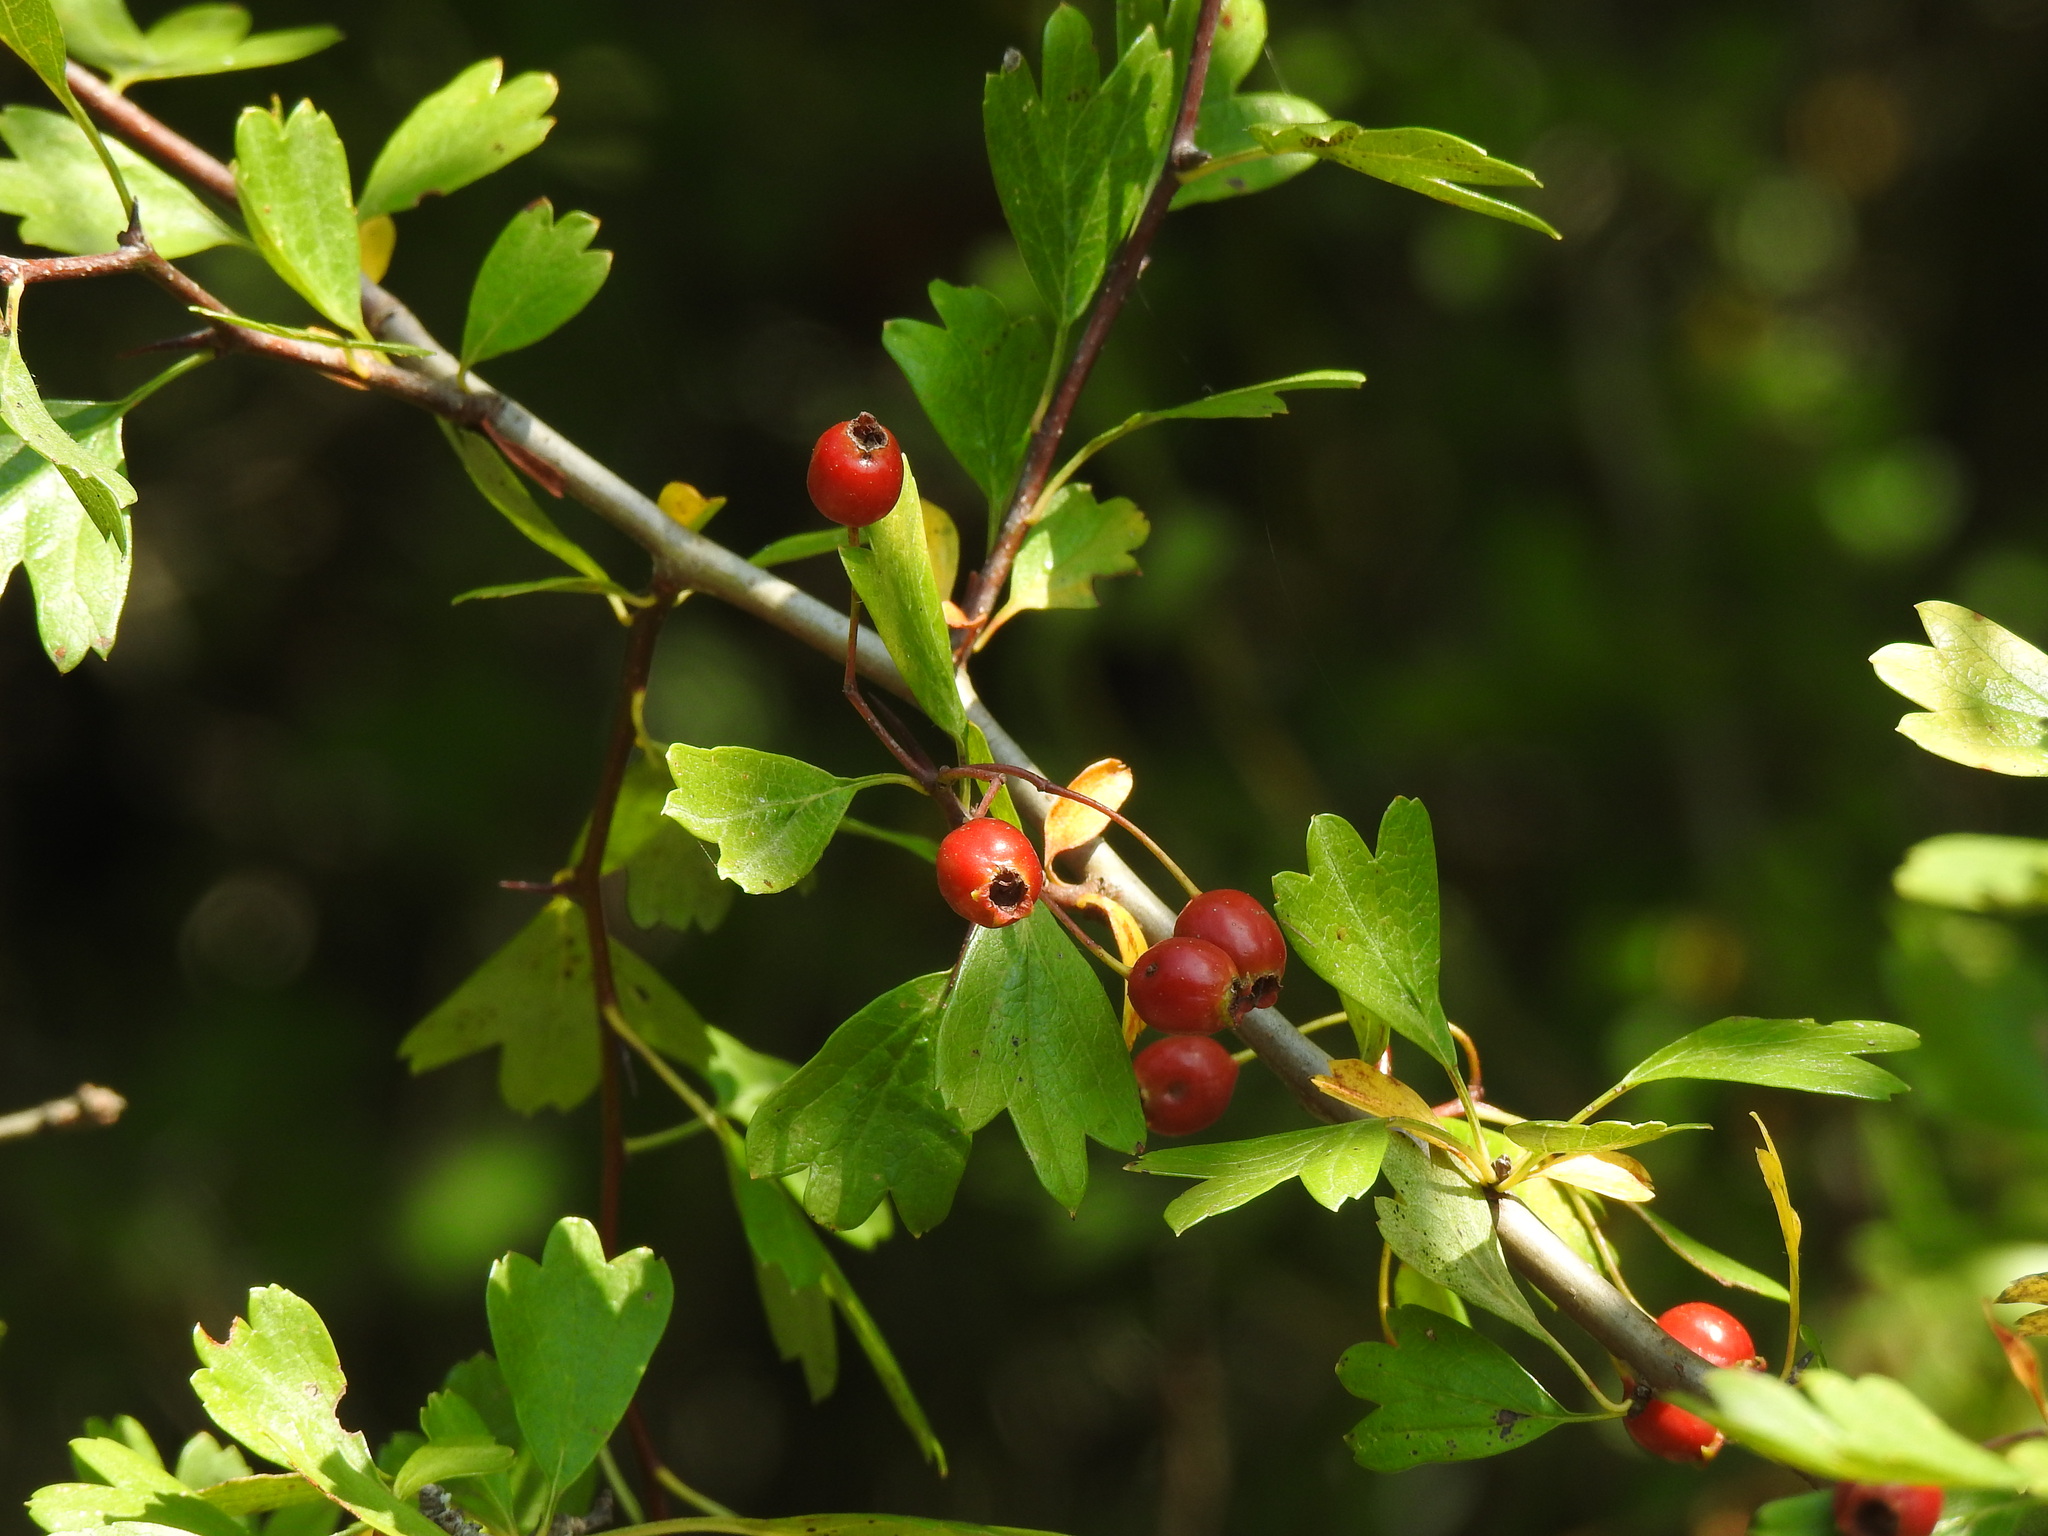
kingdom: Plantae
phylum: Tracheophyta
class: Magnoliopsida
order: Rosales
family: Rosaceae
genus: Crataegus
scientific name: Crataegus monogyna
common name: Hawthorn
